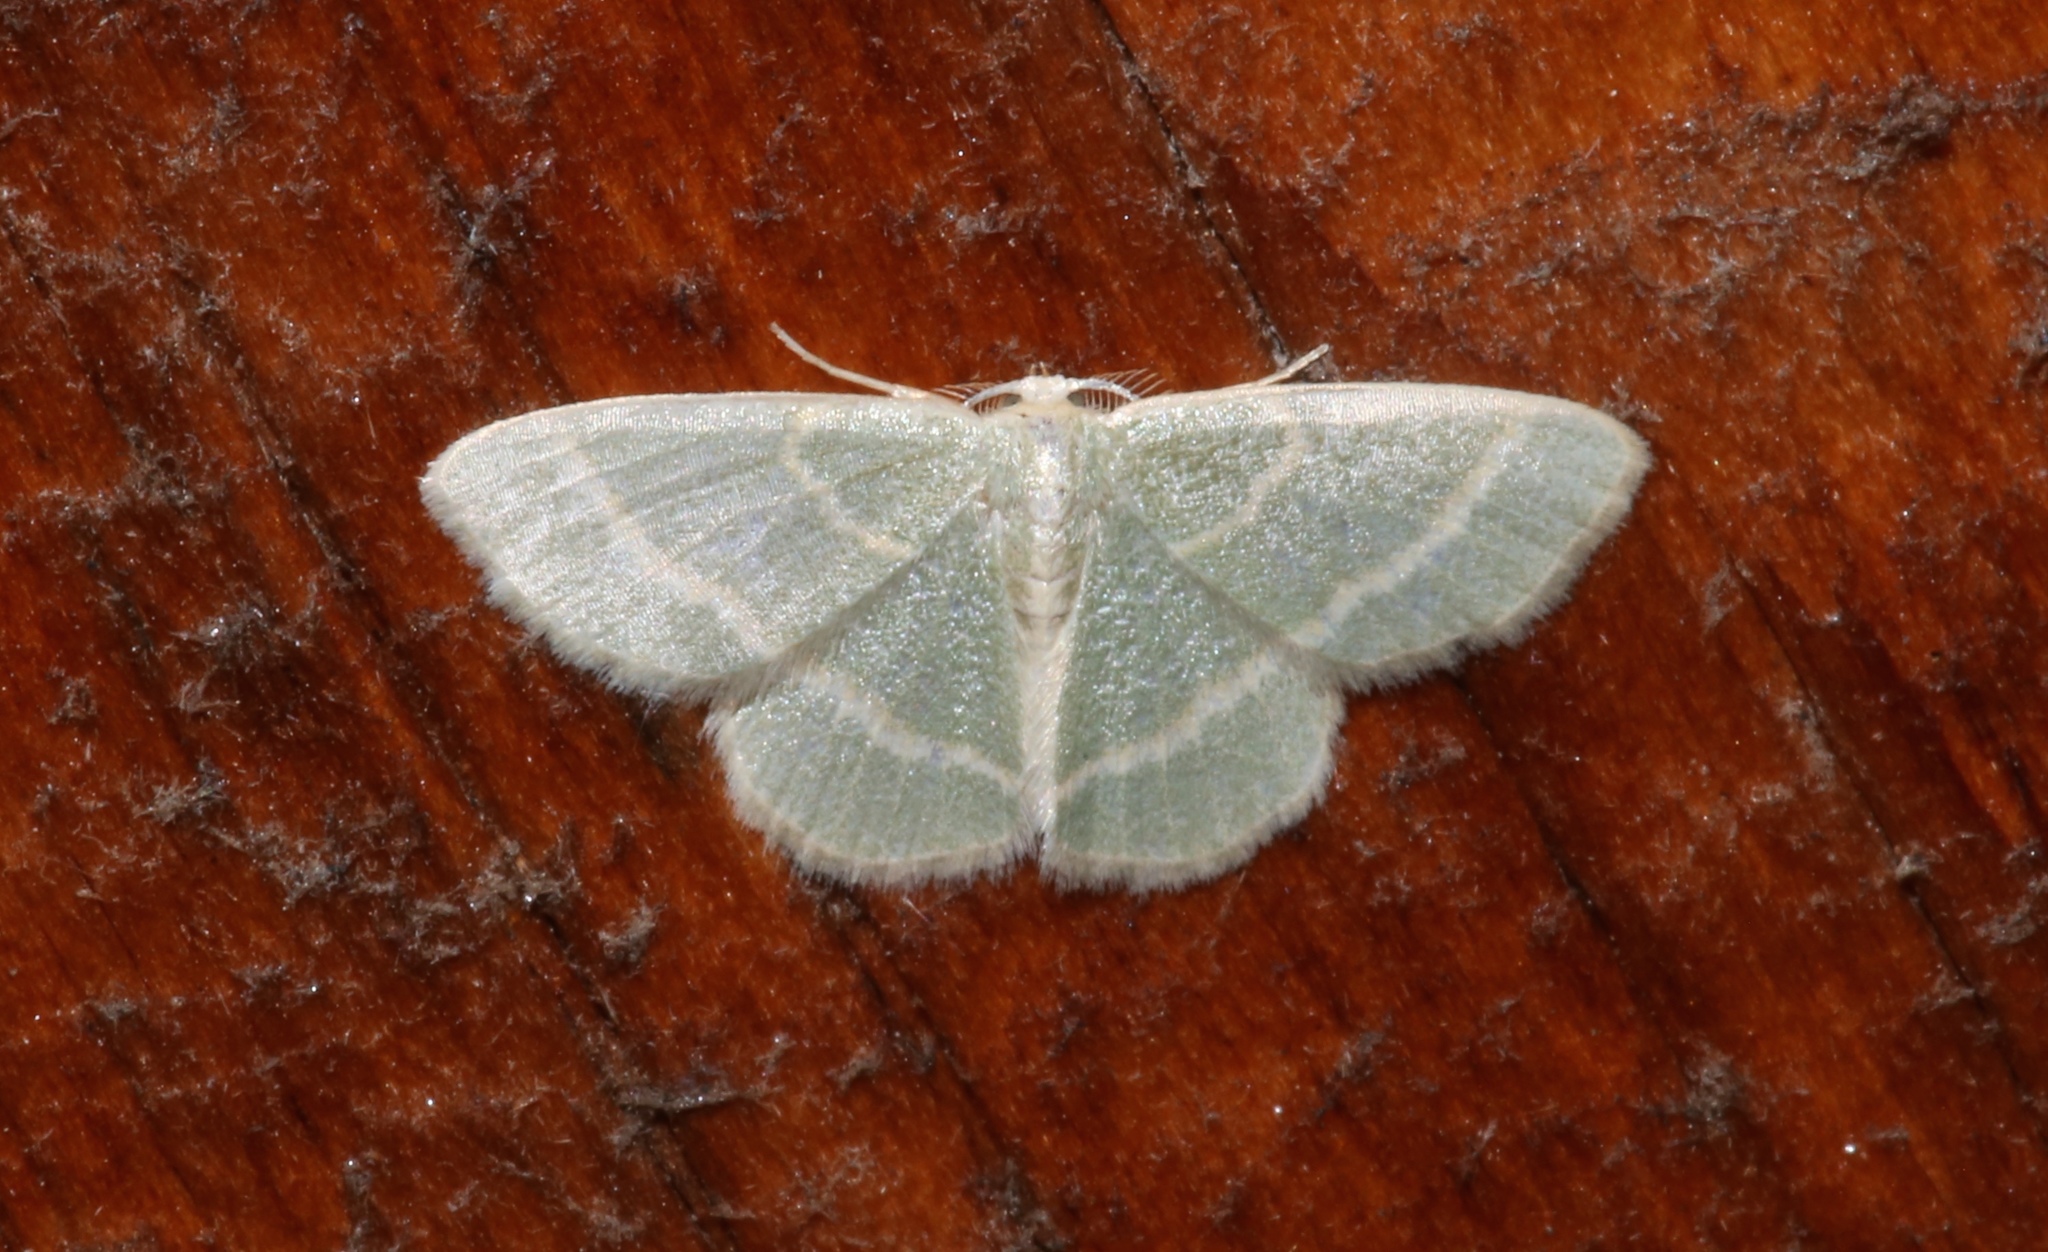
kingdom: Animalia
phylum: Arthropoda
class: Insecta
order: Lepidoptera
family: Geometridae
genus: Chlorochlamys
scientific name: Chlorochlamys chloroleucaria
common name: Blackberry looper
